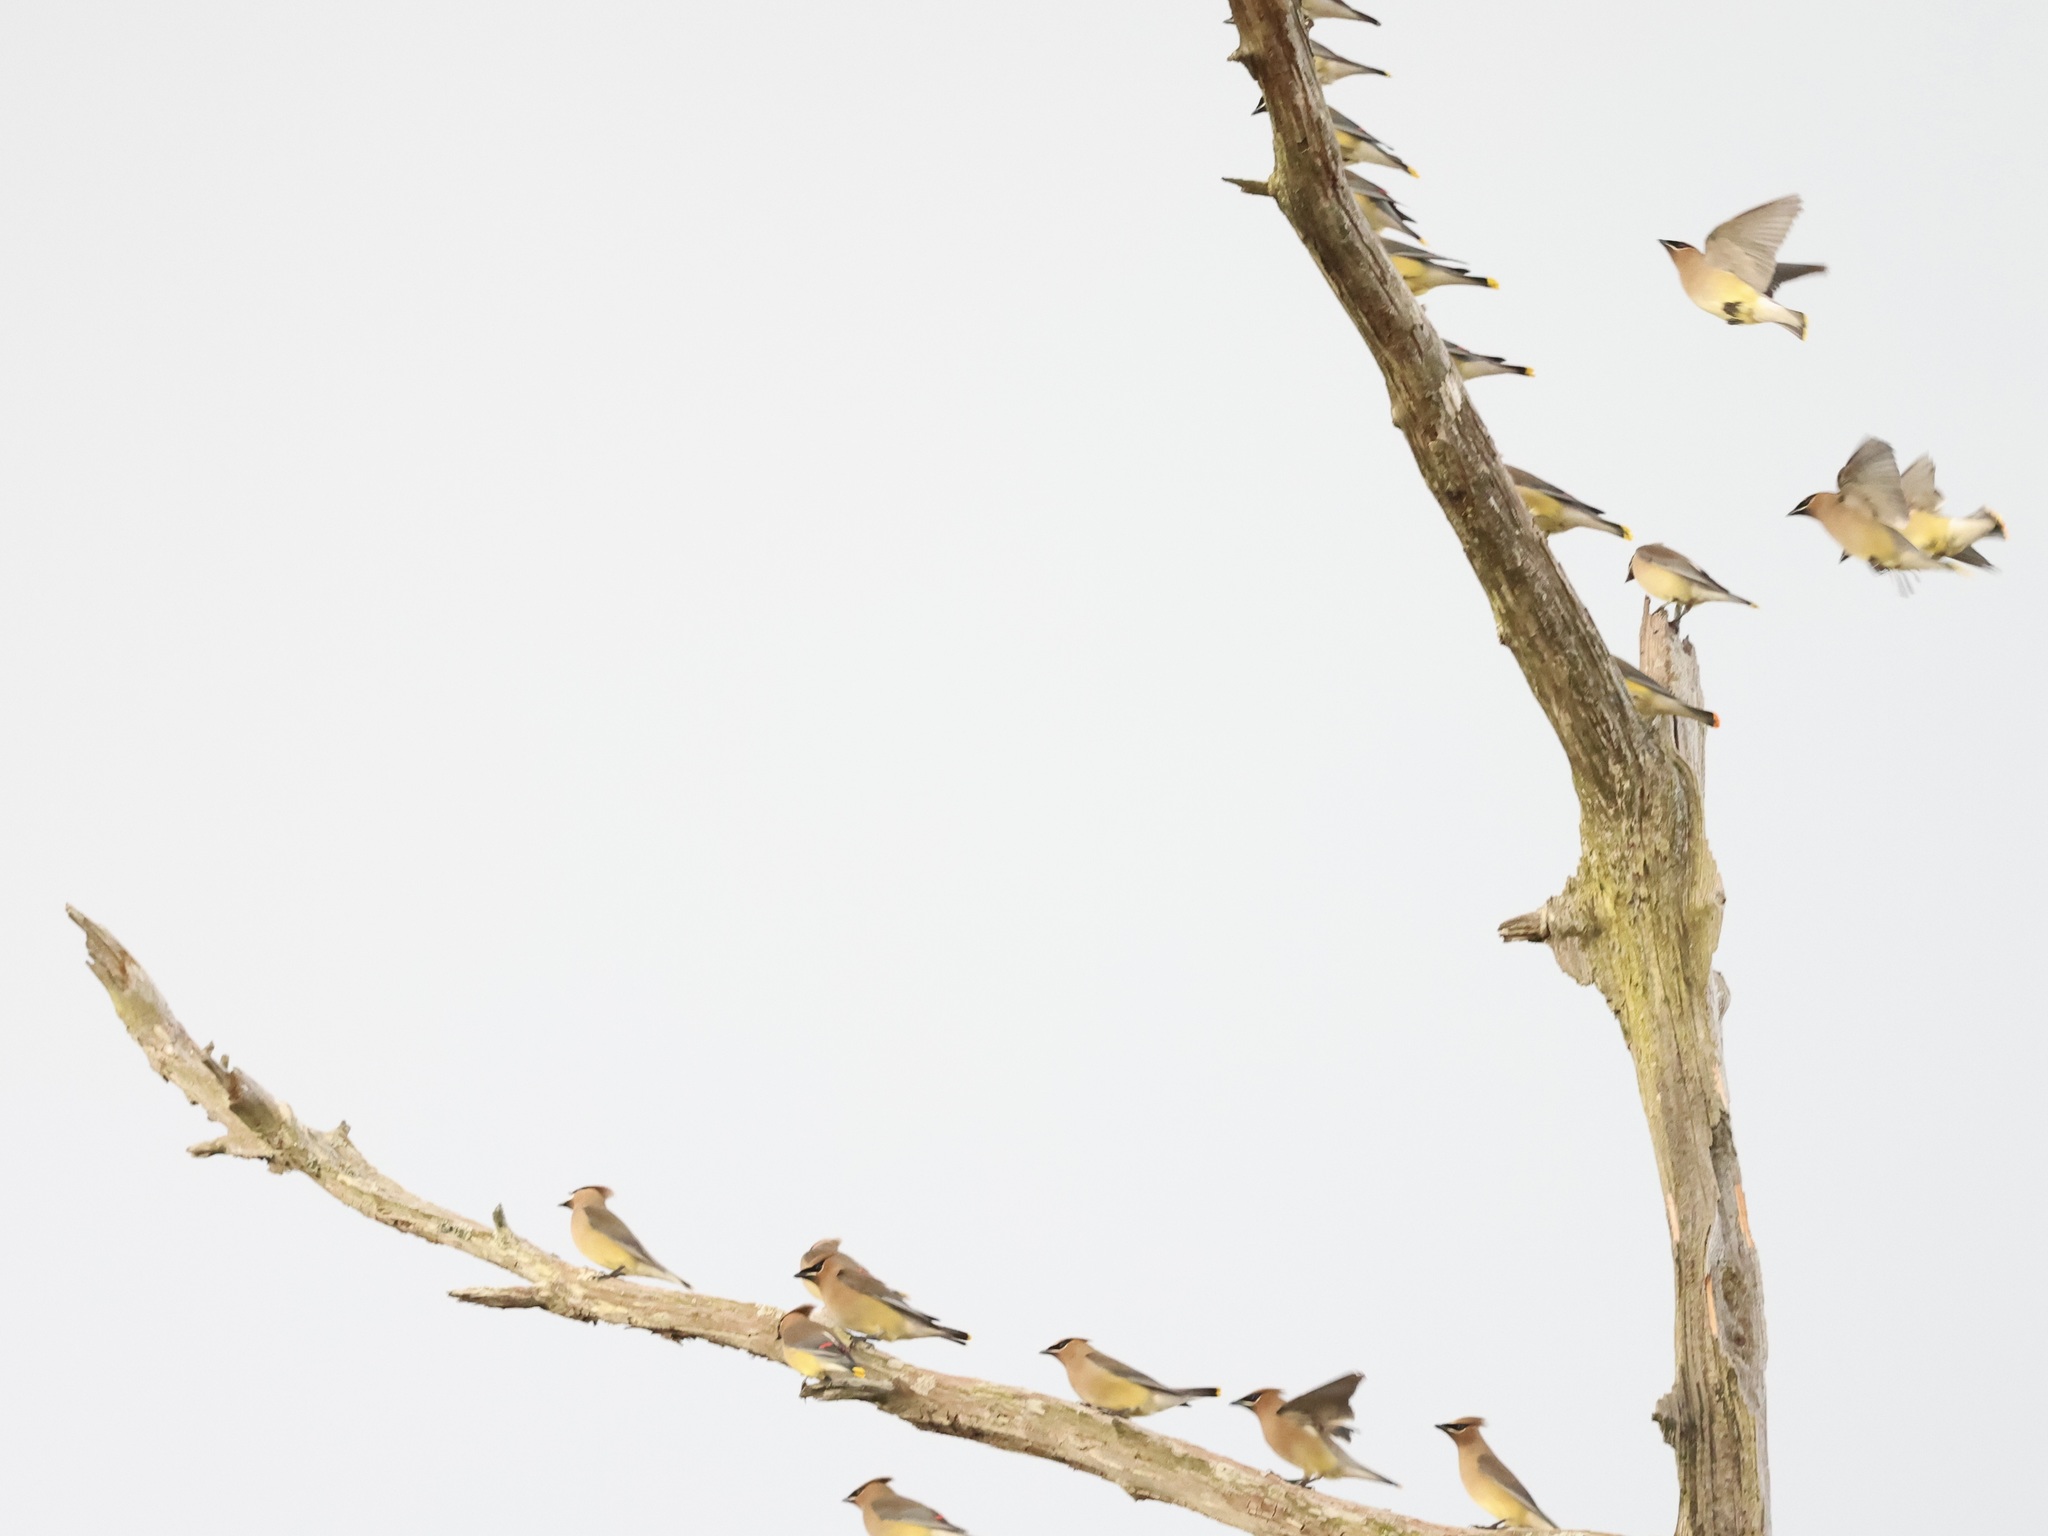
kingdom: Animalia
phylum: Chordata
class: Aves
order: Passeriformes
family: Bombycillidae
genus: Bombycilla
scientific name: Bombycilla cedrorum
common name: Cedar waxwing
